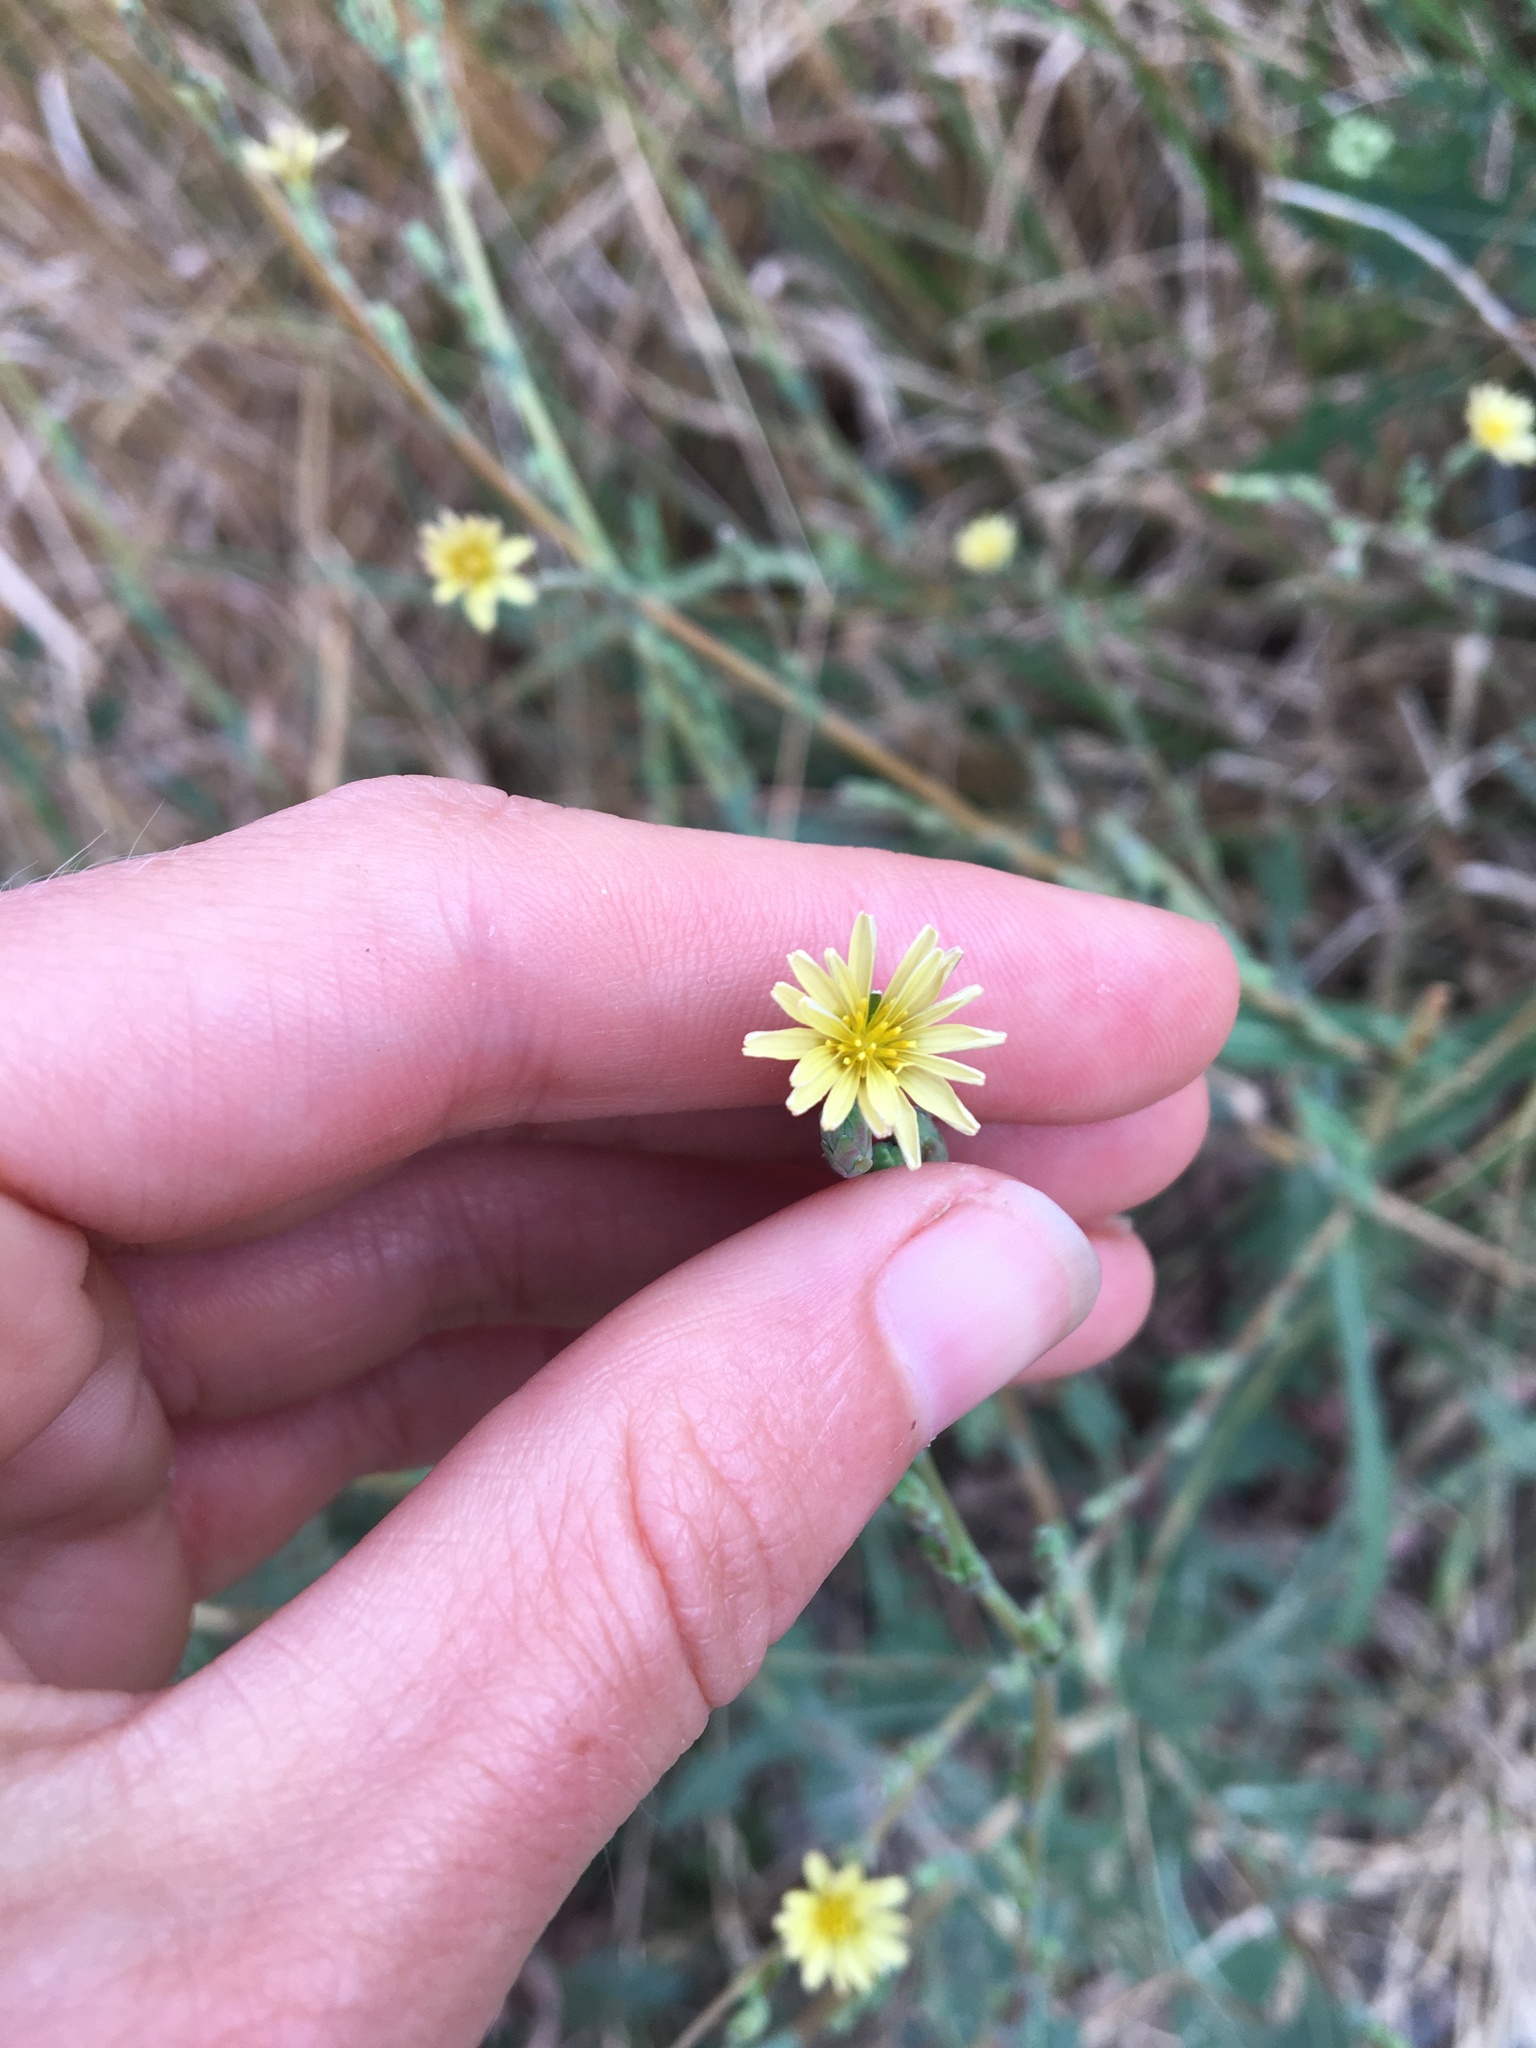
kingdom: Plantae
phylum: Tracheophyta
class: Magnoliopsida
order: Asterales
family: Asteraceae
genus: Lactuca
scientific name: Lactuca serriola
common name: Prickly lettuce
